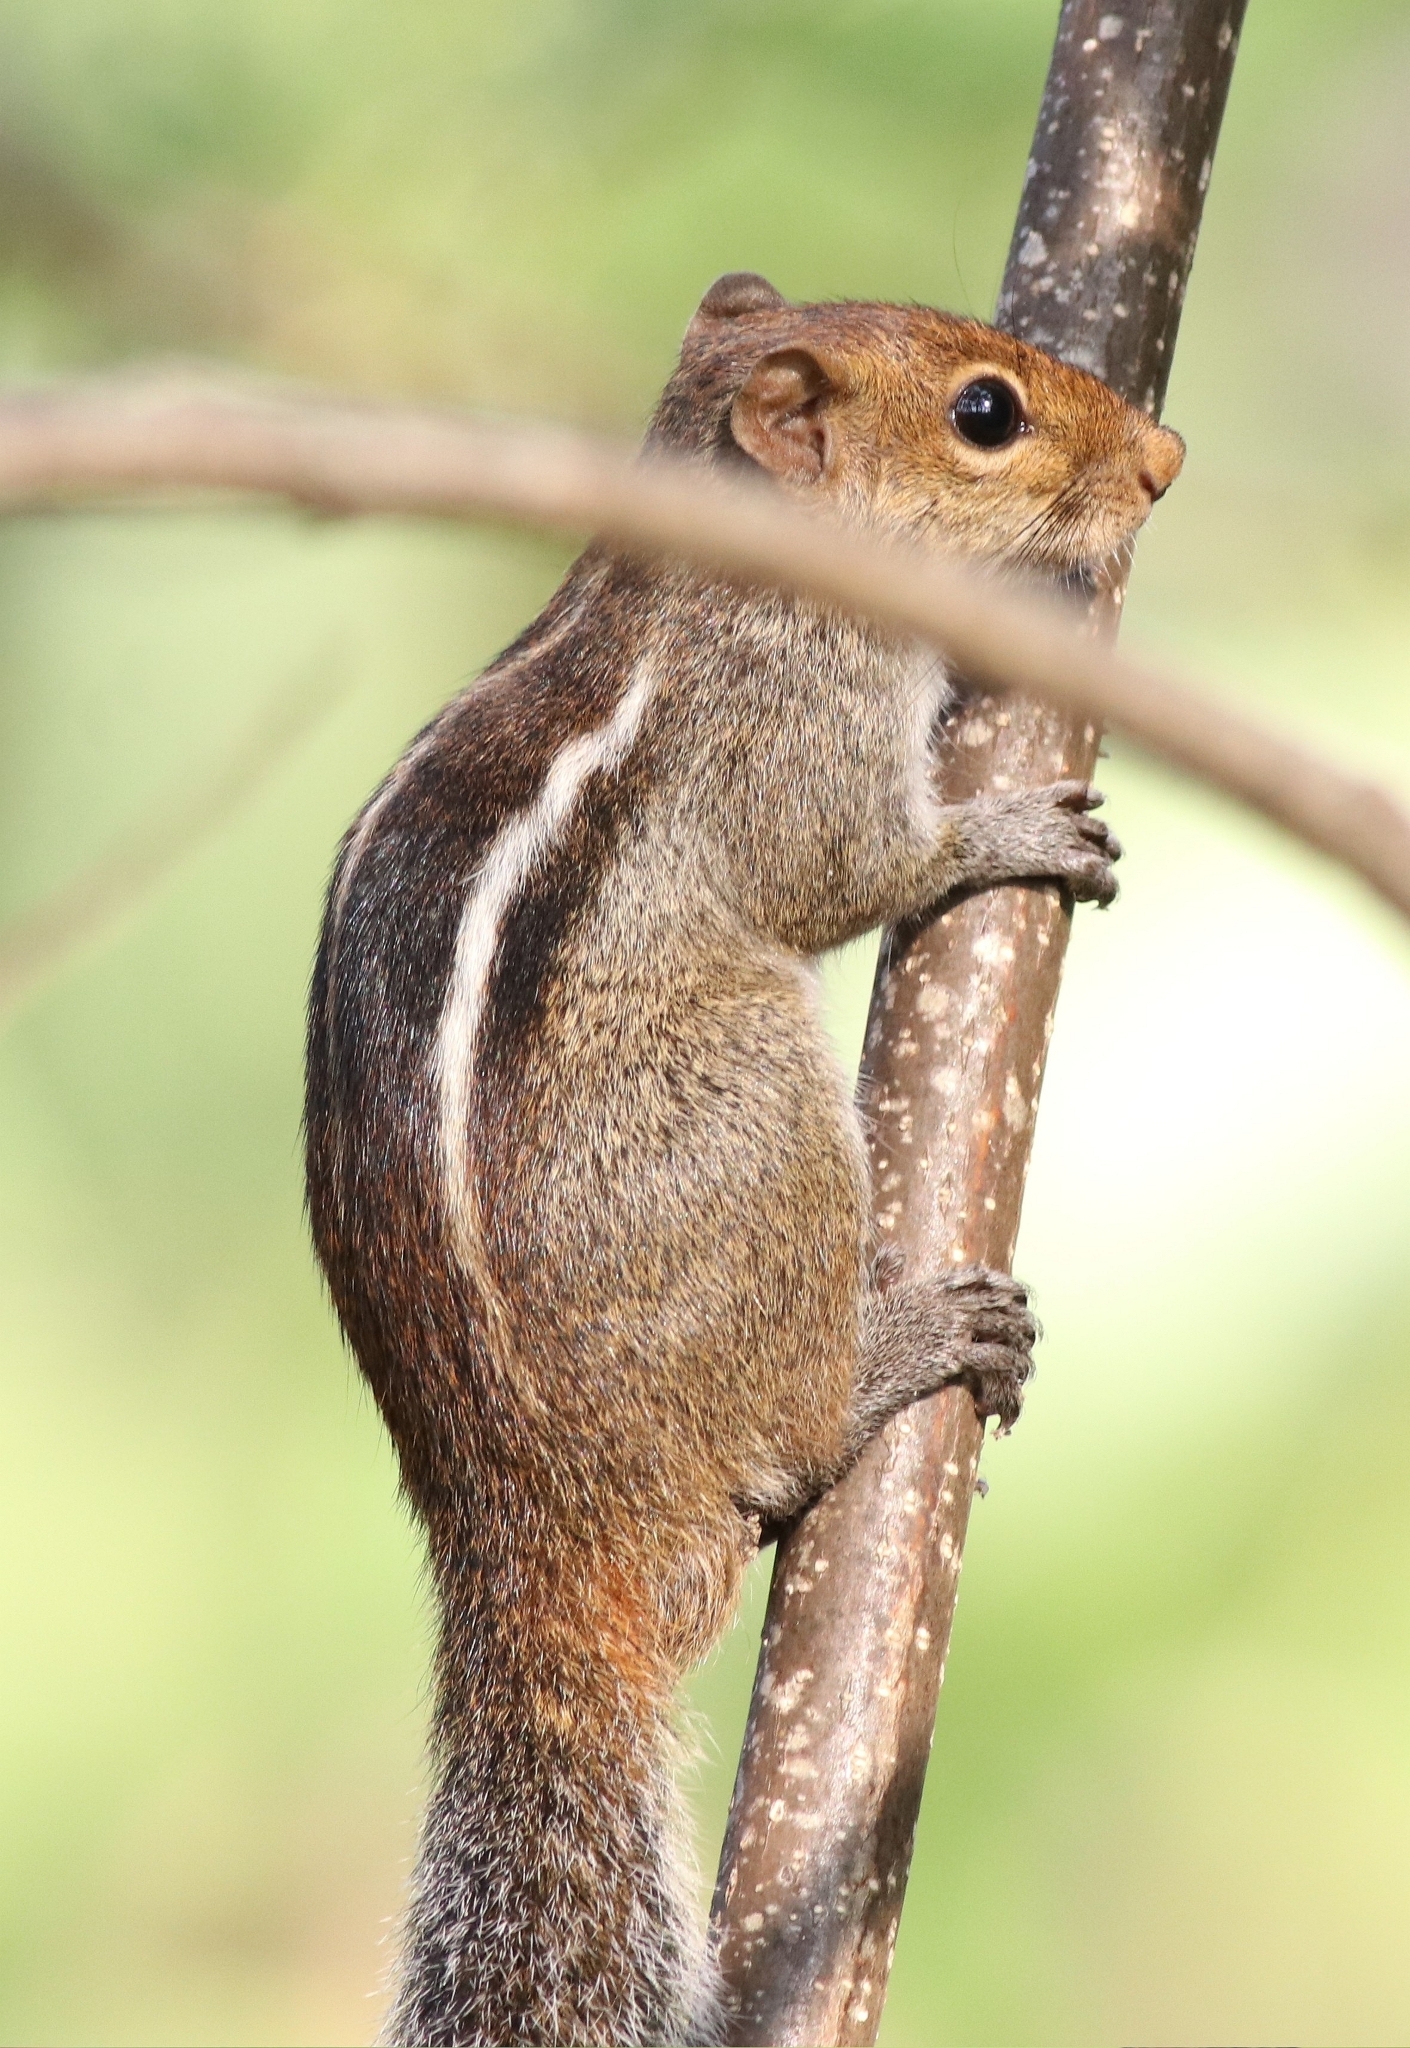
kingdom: Animalia
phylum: Chordata
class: Mammalia
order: Rodentia
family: Sciuridae
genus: Funambulus
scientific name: Funambulus tristriatus
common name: Jungle palm squirrel
